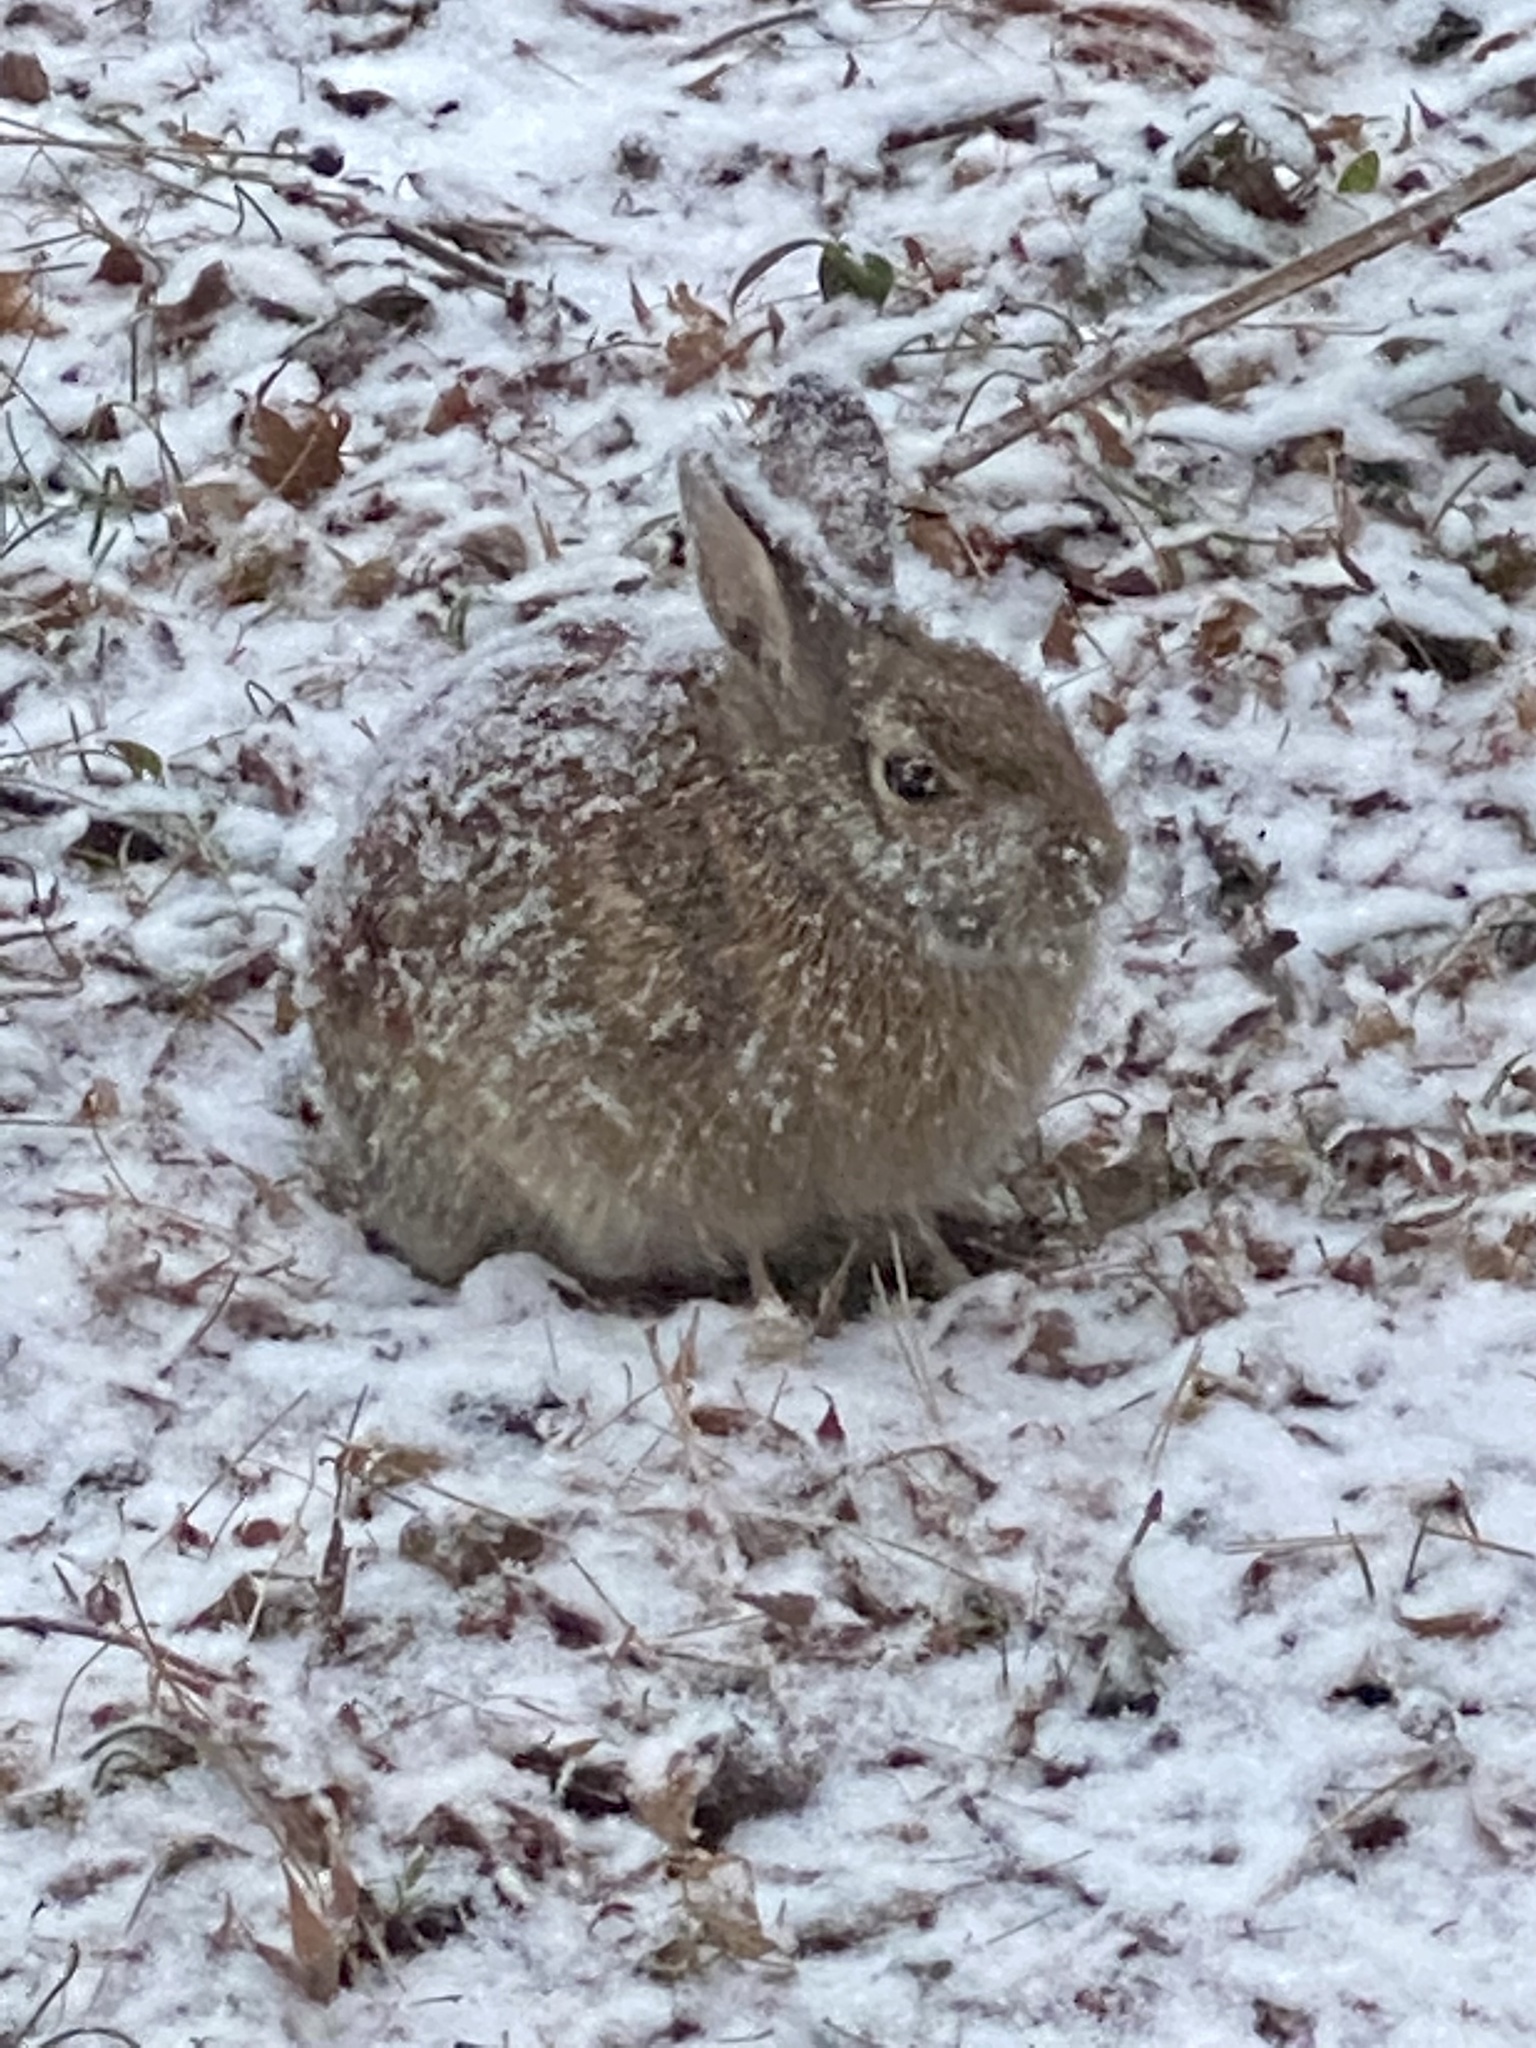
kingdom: Animalia
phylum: Chordata
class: Mammalia
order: Lagomorpha
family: Leporidae
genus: Sylvilagus
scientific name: Sylvilagus floridanus
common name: Eastern cottontail
